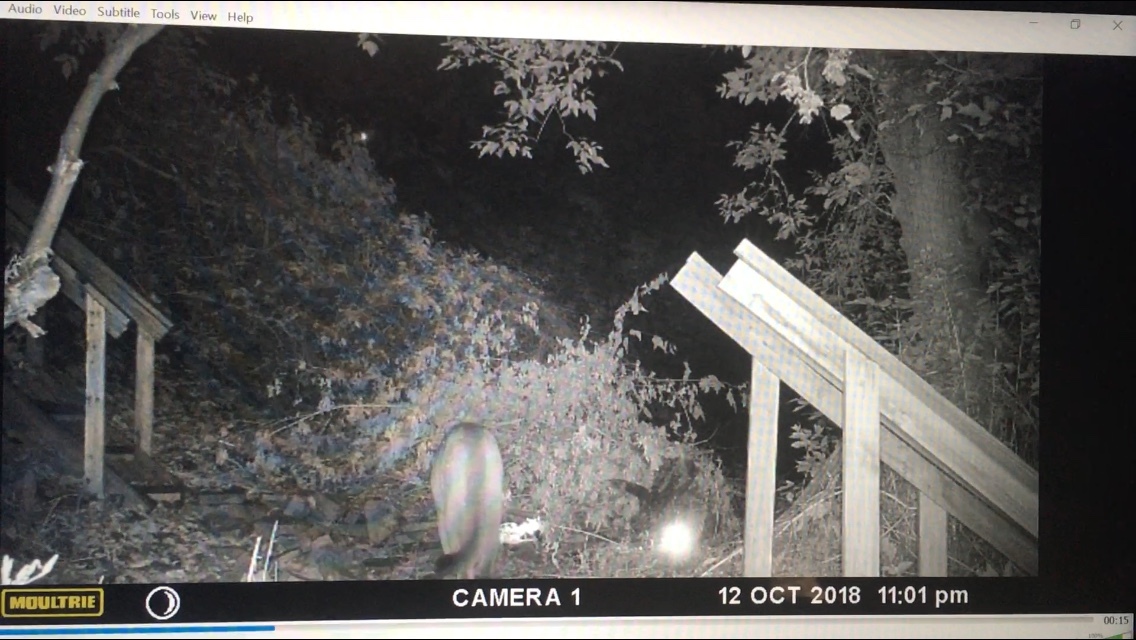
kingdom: Animalia
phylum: Chordata
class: Mammalia
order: Carnivora
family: Felidae
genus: Puma
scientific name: Puma concolor
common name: Puma
